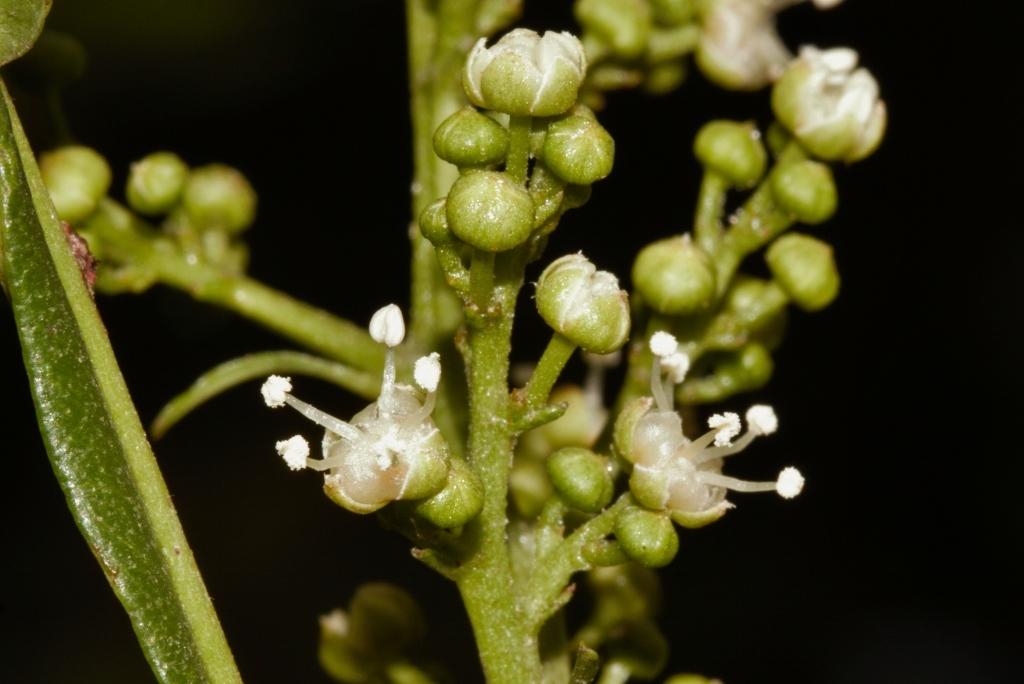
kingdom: Plantae
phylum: Tracheophyta
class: Magnoliopsida
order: Sapindales
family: Sapindaceae
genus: Filicium
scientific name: Filicium decipiens
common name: Ferntree
